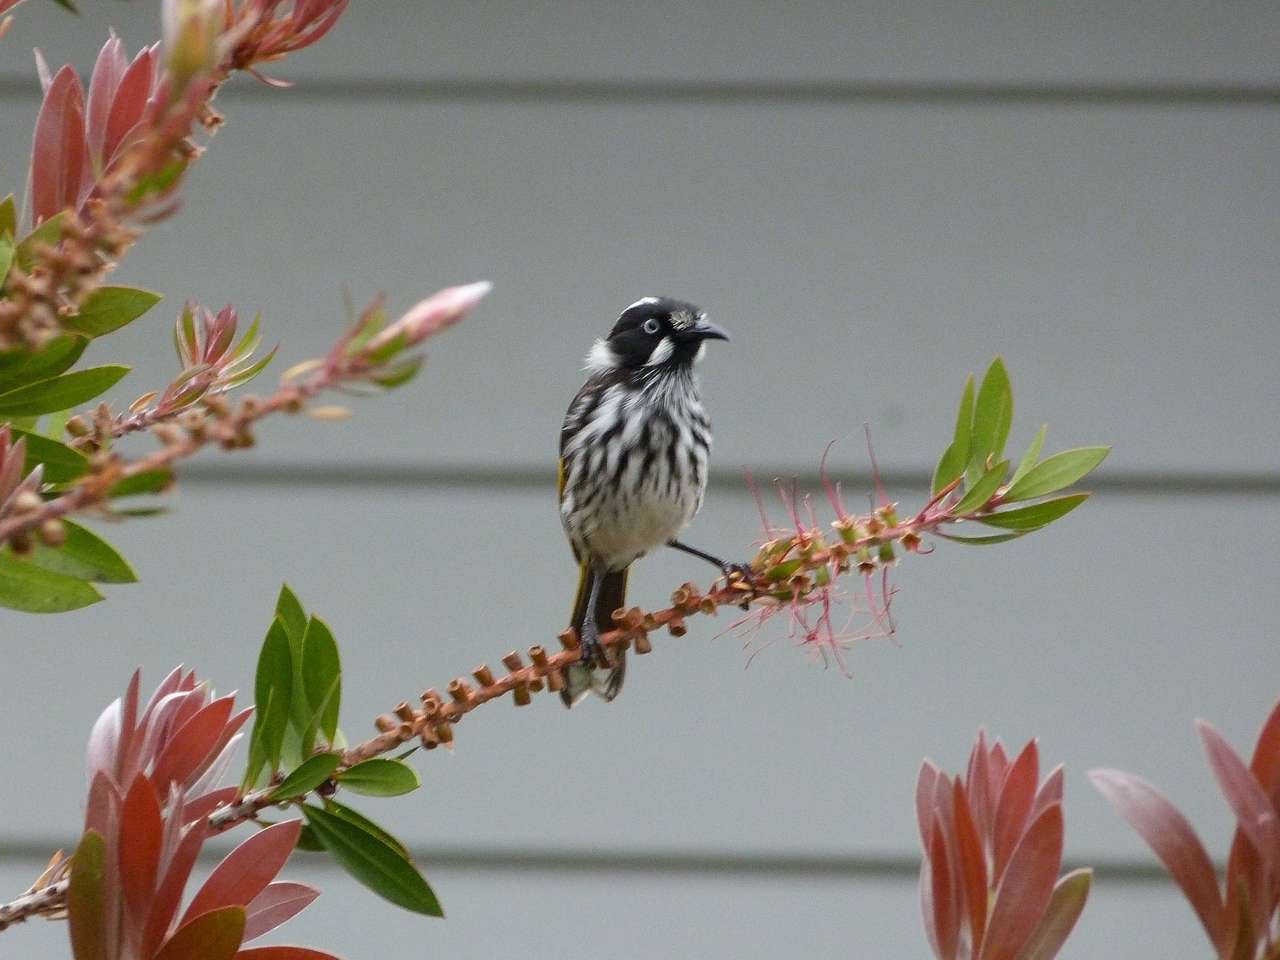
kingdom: Animalia
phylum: Chordata
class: Aves
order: Passeriformes
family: Meliphagidae
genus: Phylidonyris
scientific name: Phylidonyris novaehollandiae
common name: New holland honeyeater
